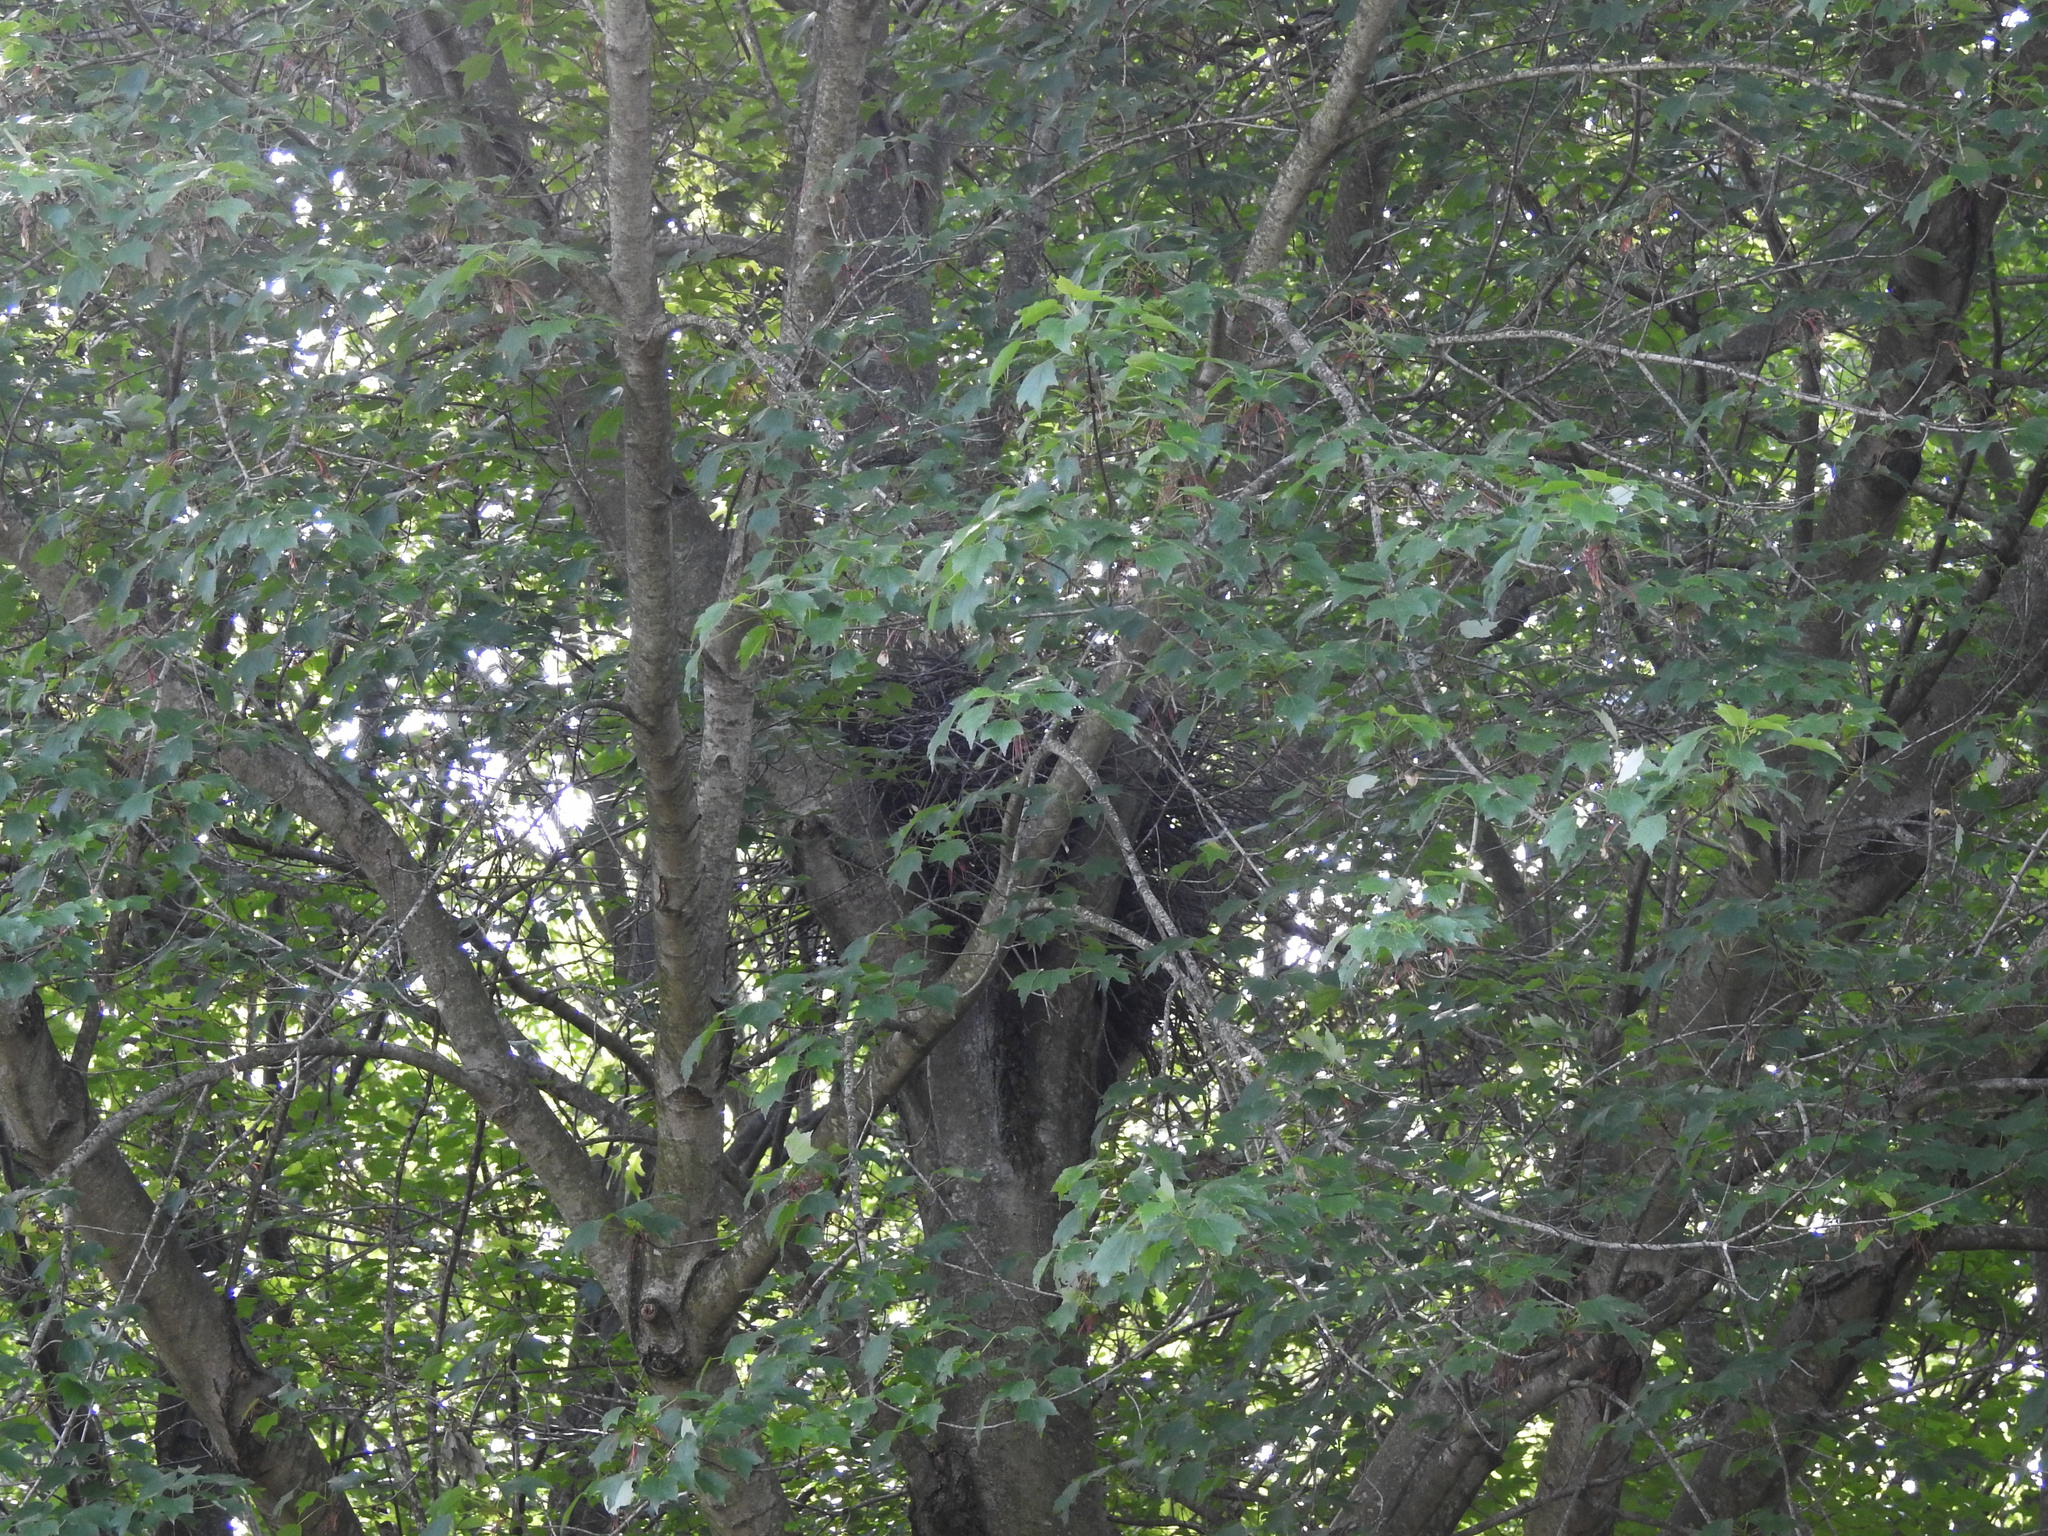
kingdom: Animalia
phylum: Chordata
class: Aves
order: Accipitriformes
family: Accipitridae
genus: Accipiter
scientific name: Accipiter cooperii
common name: Cooper's hawk
